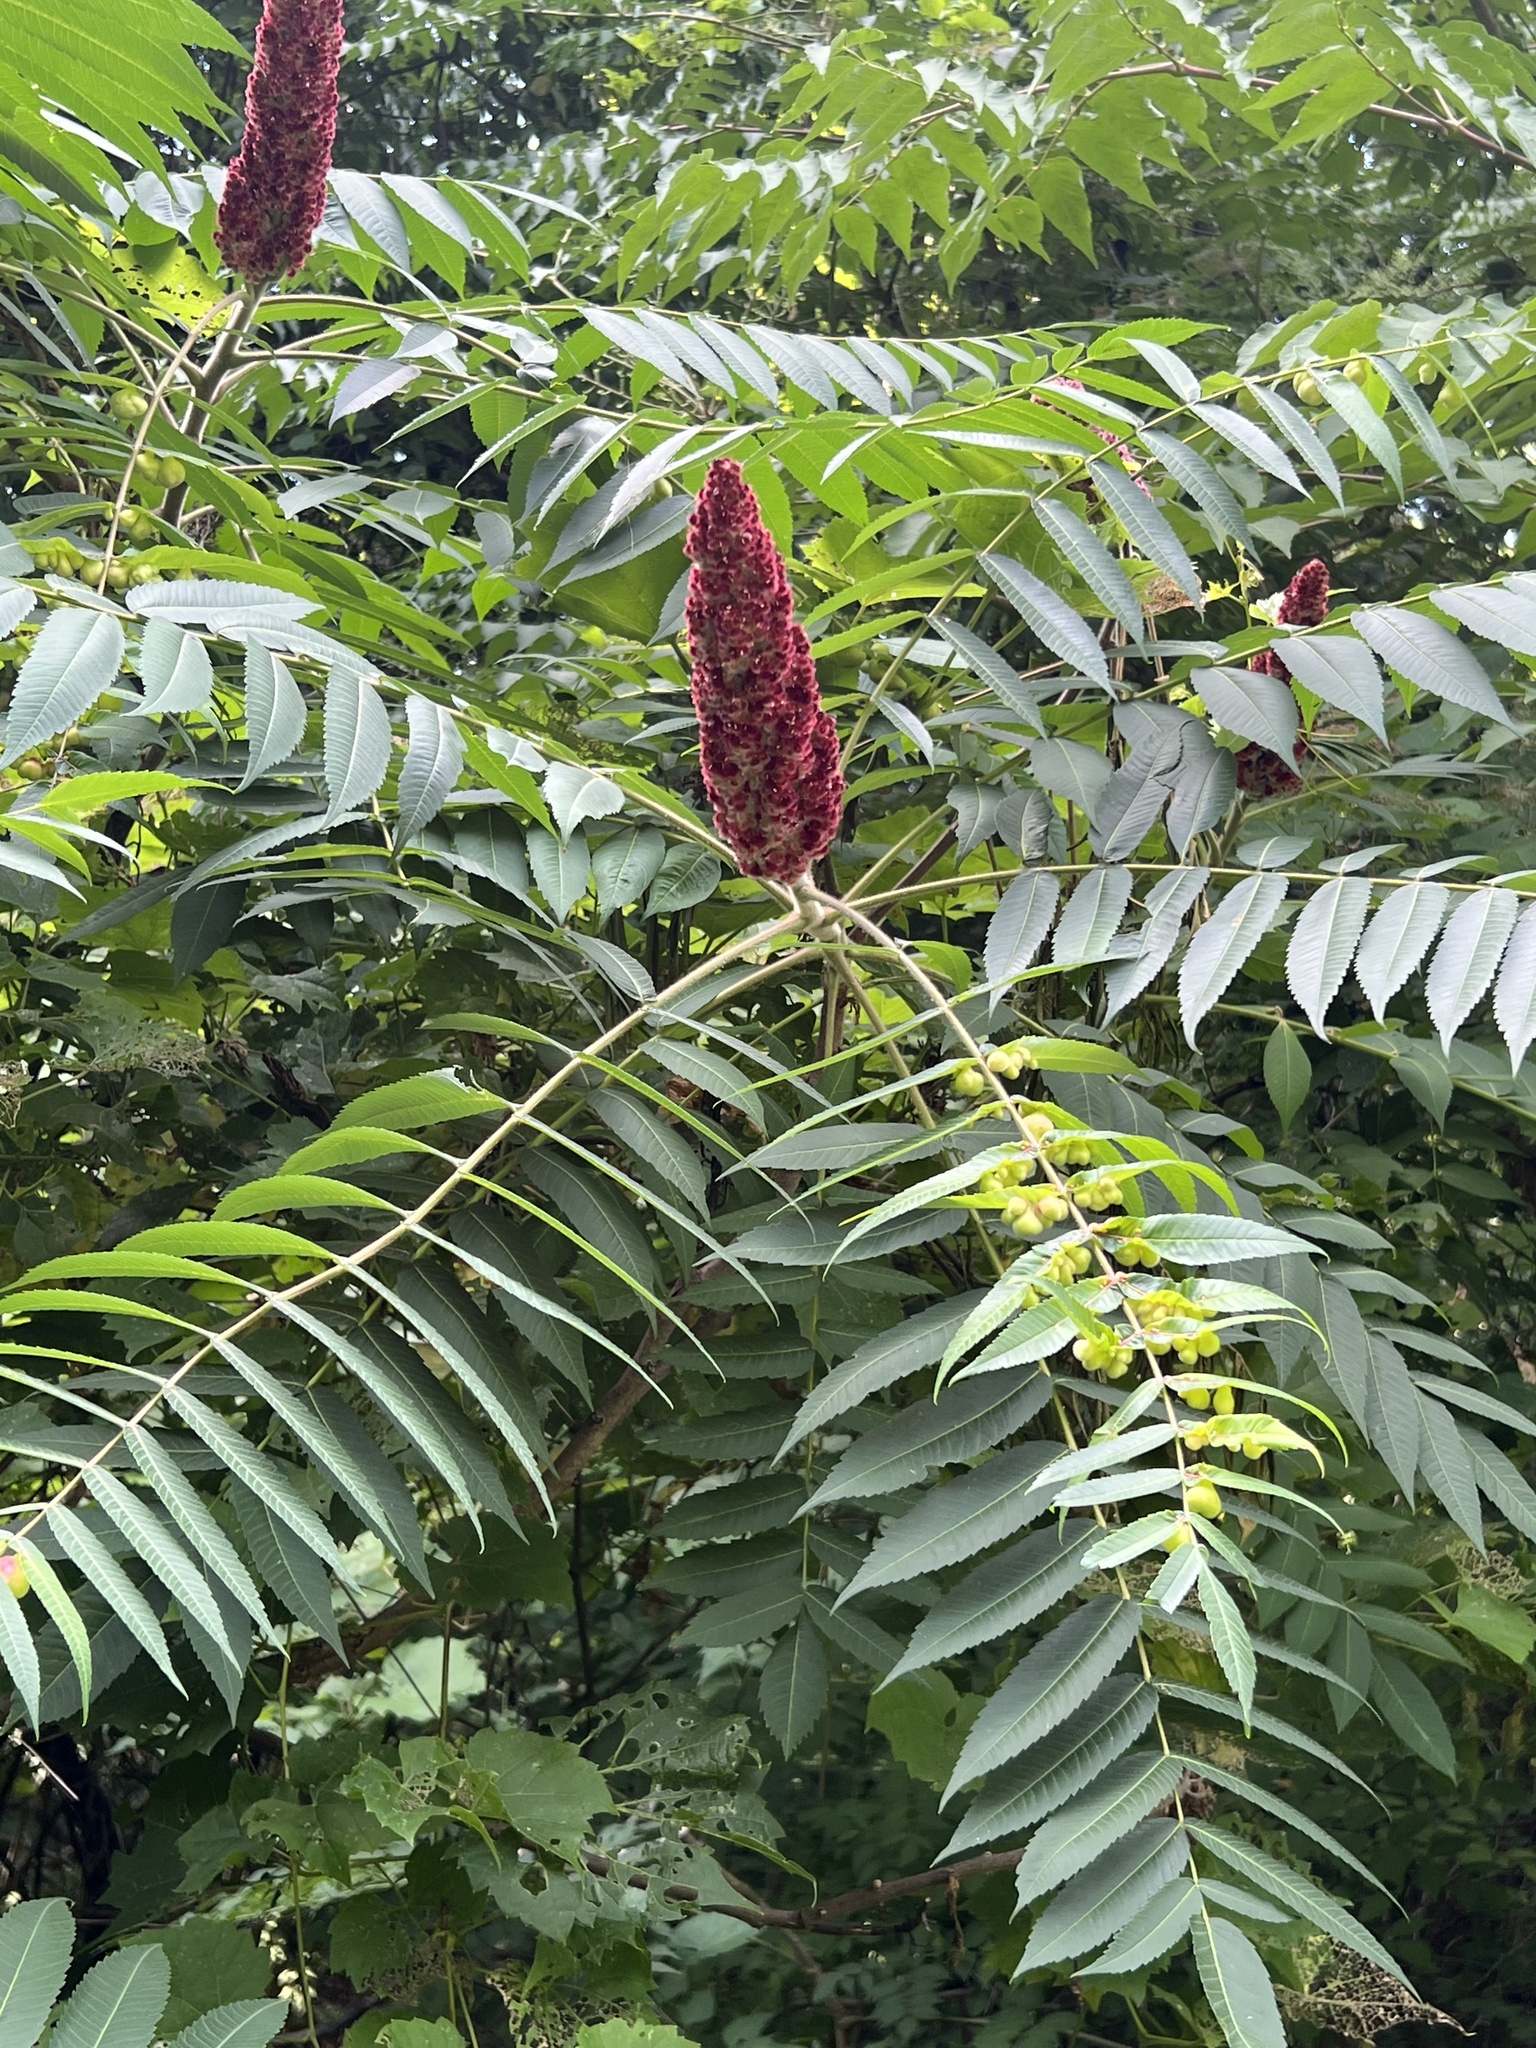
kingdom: Plantae
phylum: Tracheophyta
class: Magnoliopsida
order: Sapindales
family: Anacardiaceae
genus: Rhus
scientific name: Rhus typhina
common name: Staghorn sumac
